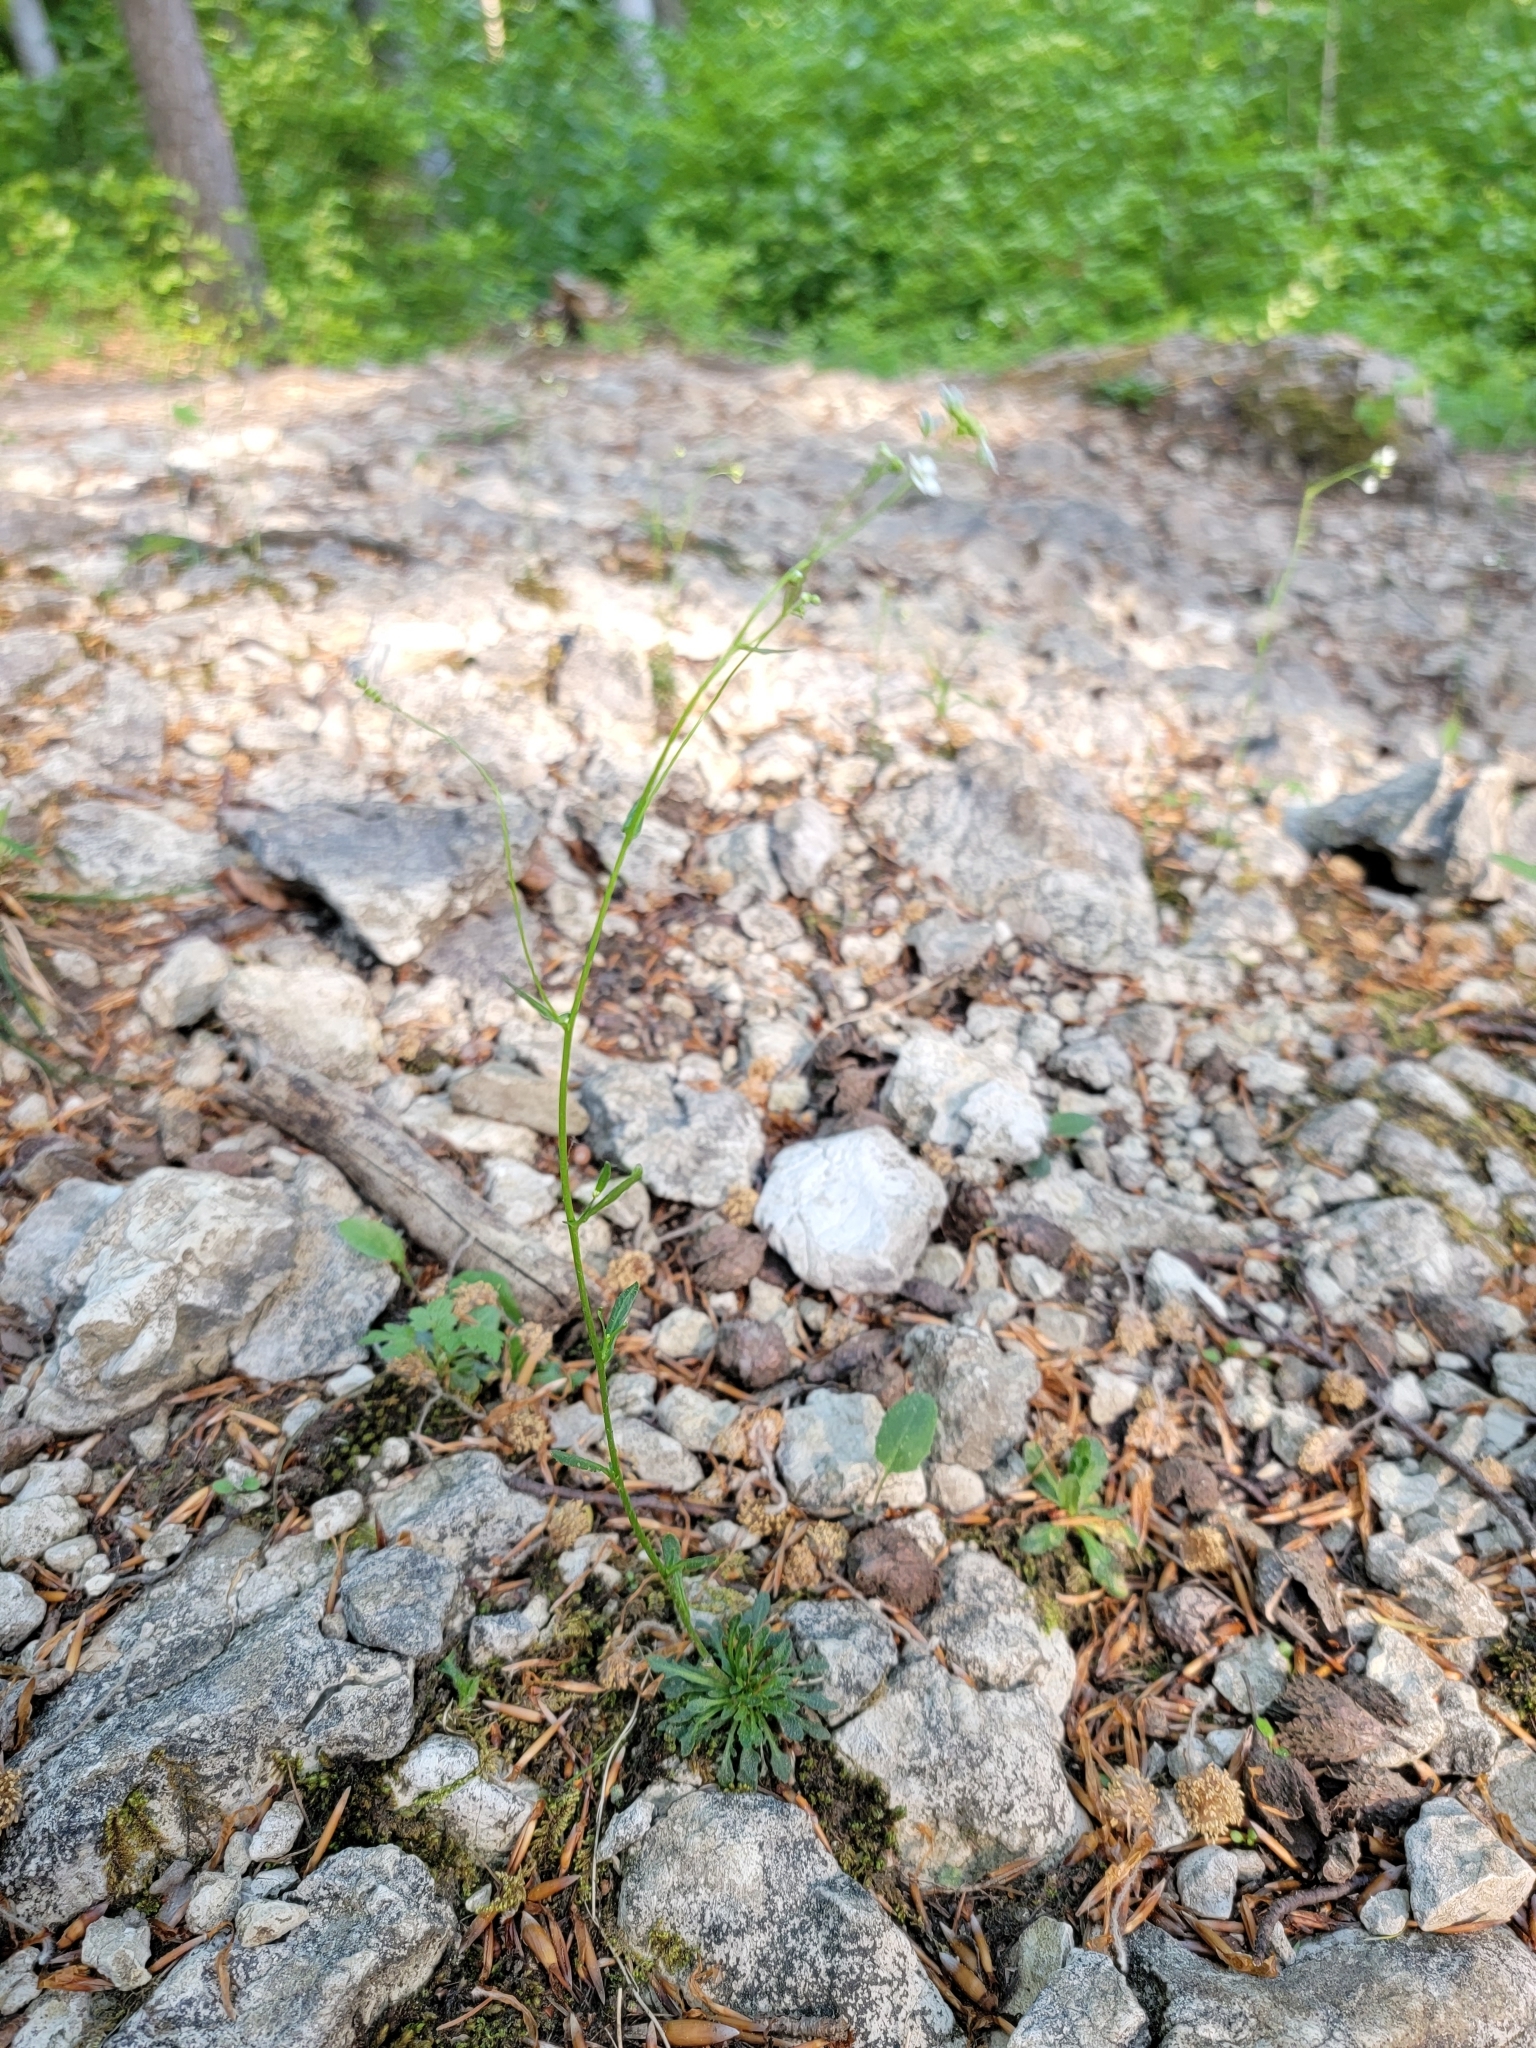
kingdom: Plantae
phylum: Tracheophyta
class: Magnoliopsida
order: Brassicales
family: Brassicaceae
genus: Kernera
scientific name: Kernera saxatilis
